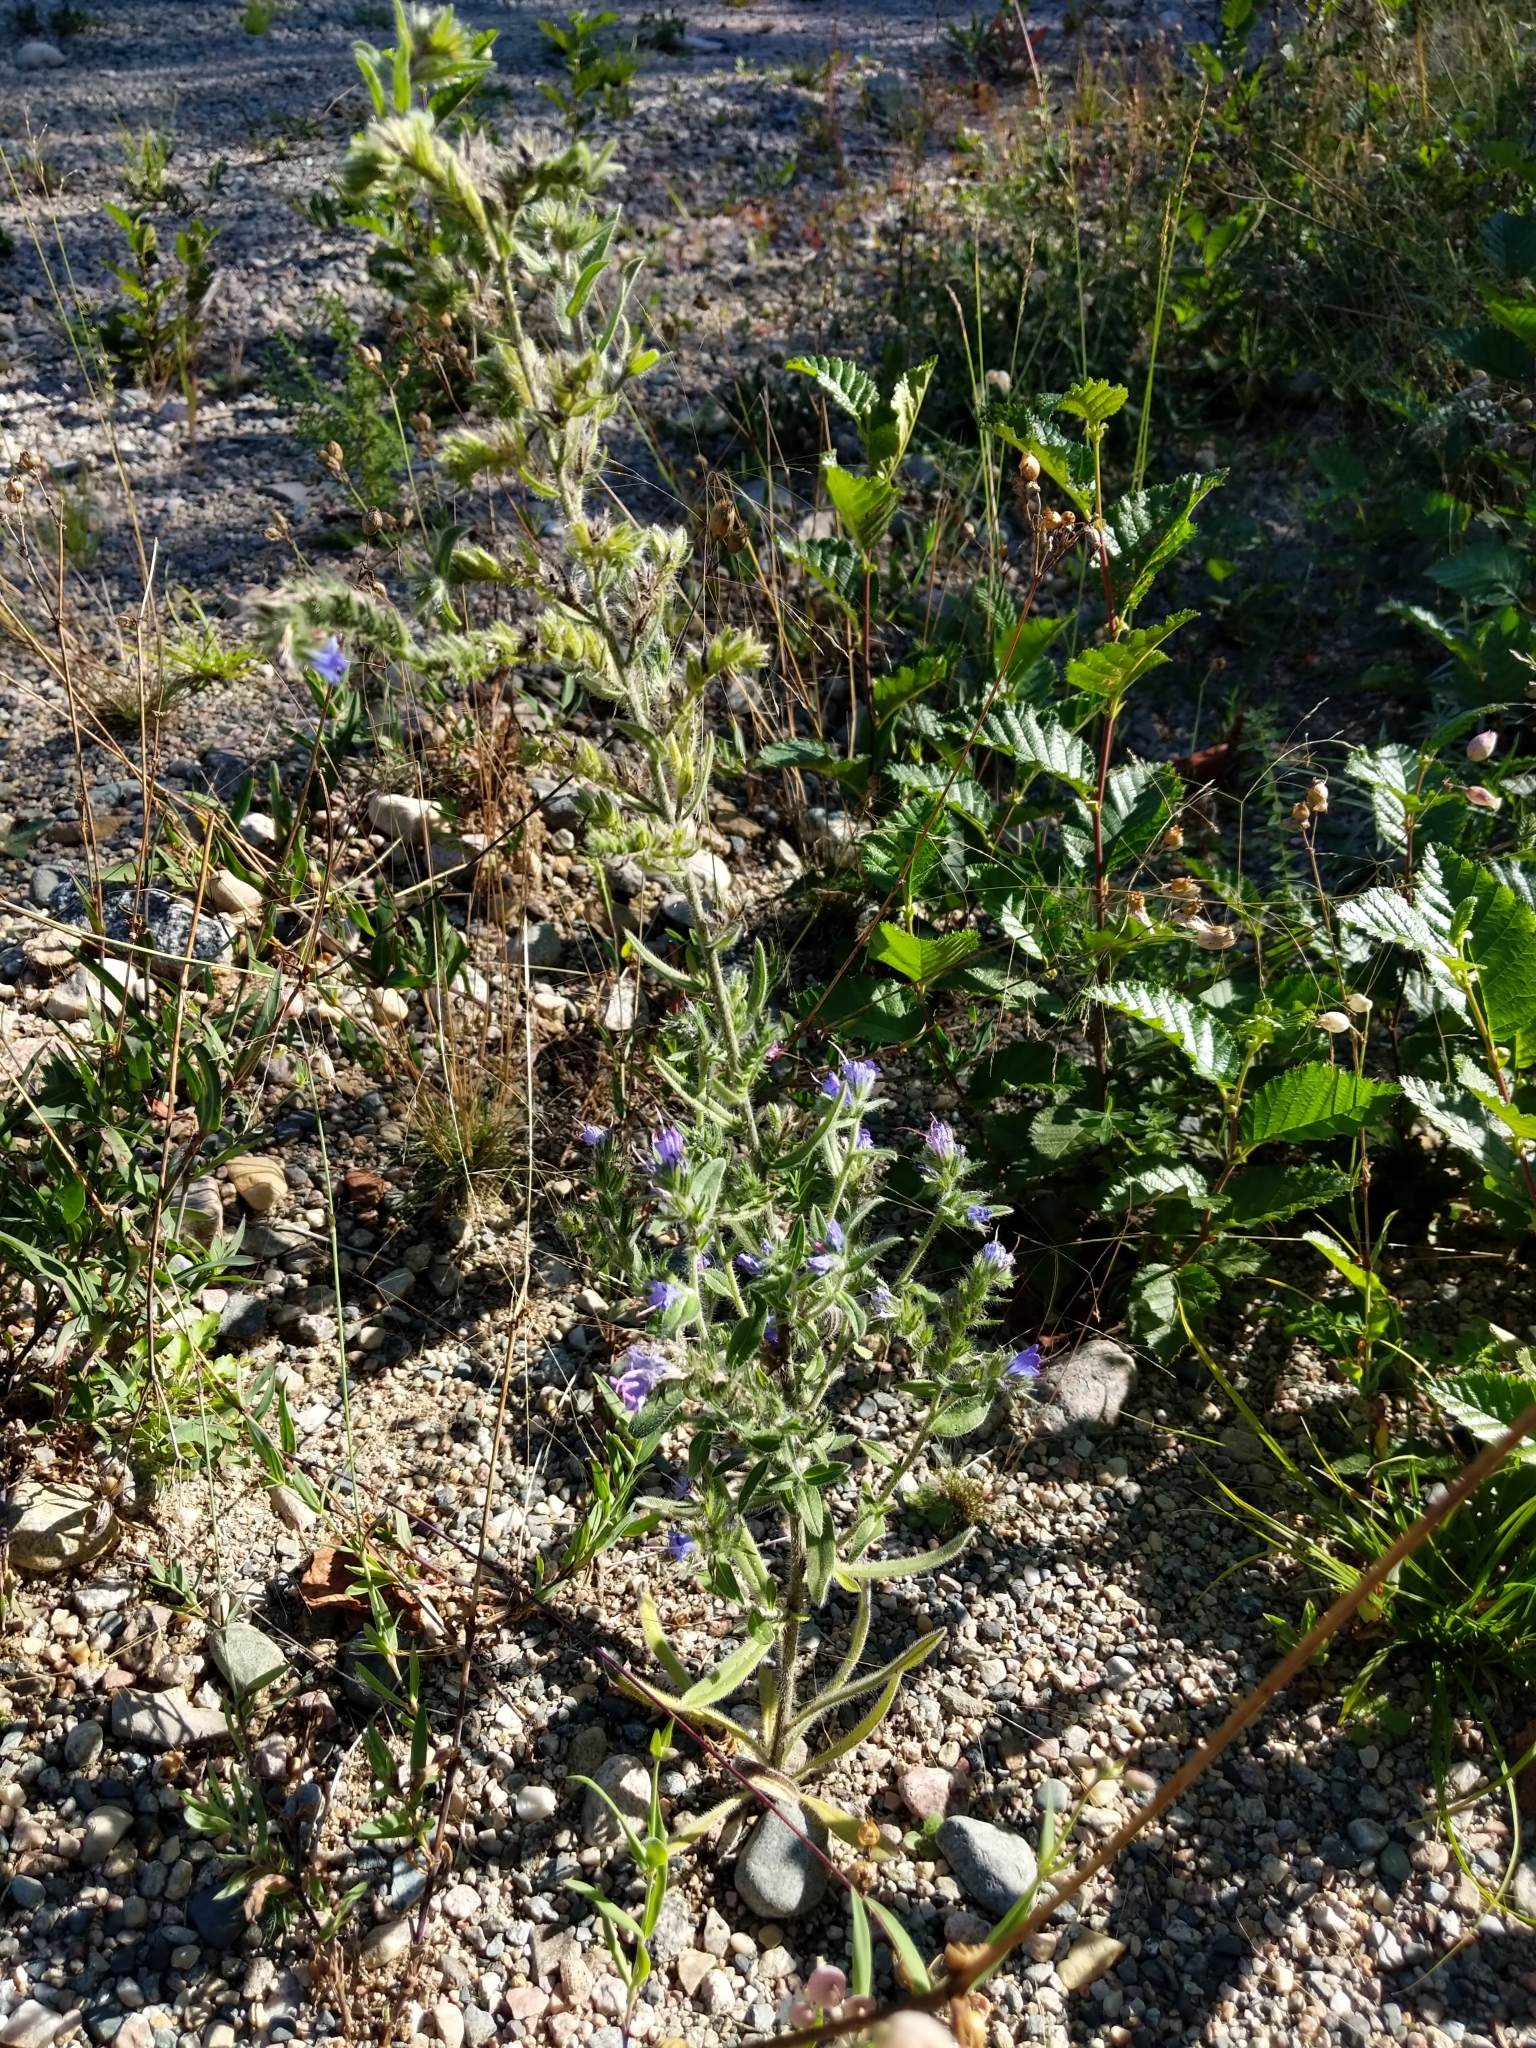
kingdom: Plantae
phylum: Tracheophyta
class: Magnoliopsida
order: Boraginales
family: Boraginaceae
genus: Echium
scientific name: Echium vulgare
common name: Common viper's bugloss
